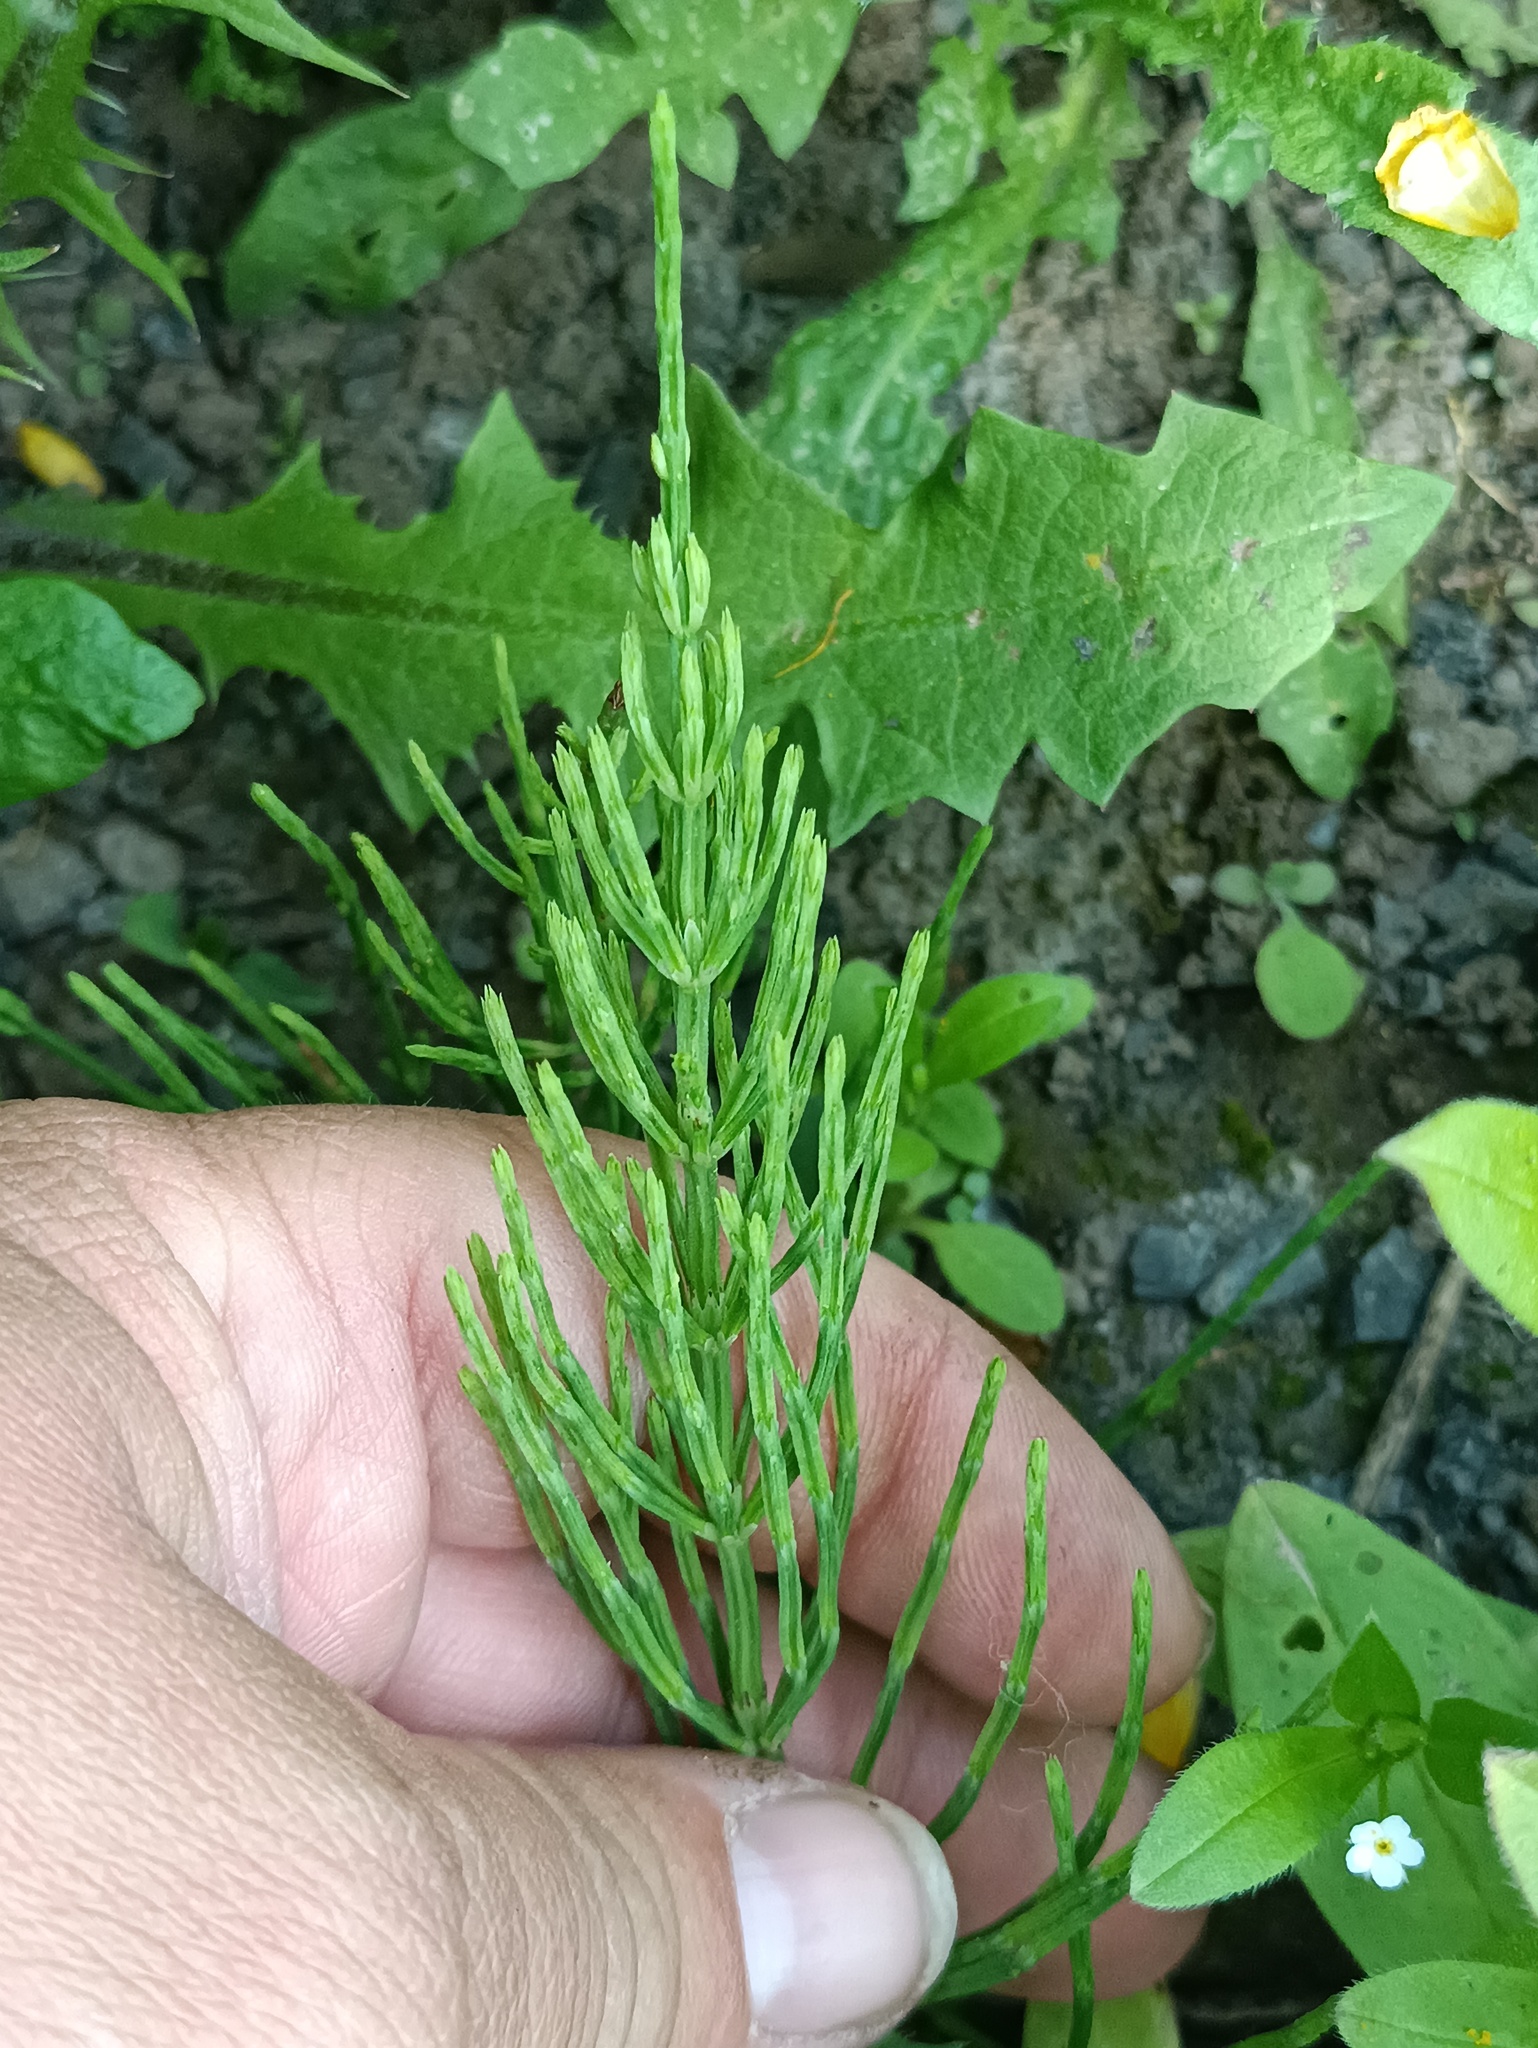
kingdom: Plantae
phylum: Tracheophyta
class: Polypodiopsida
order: Equisetales
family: Equisetaceae
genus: Equisetum
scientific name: Equisetum arvense
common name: Field horsetail
